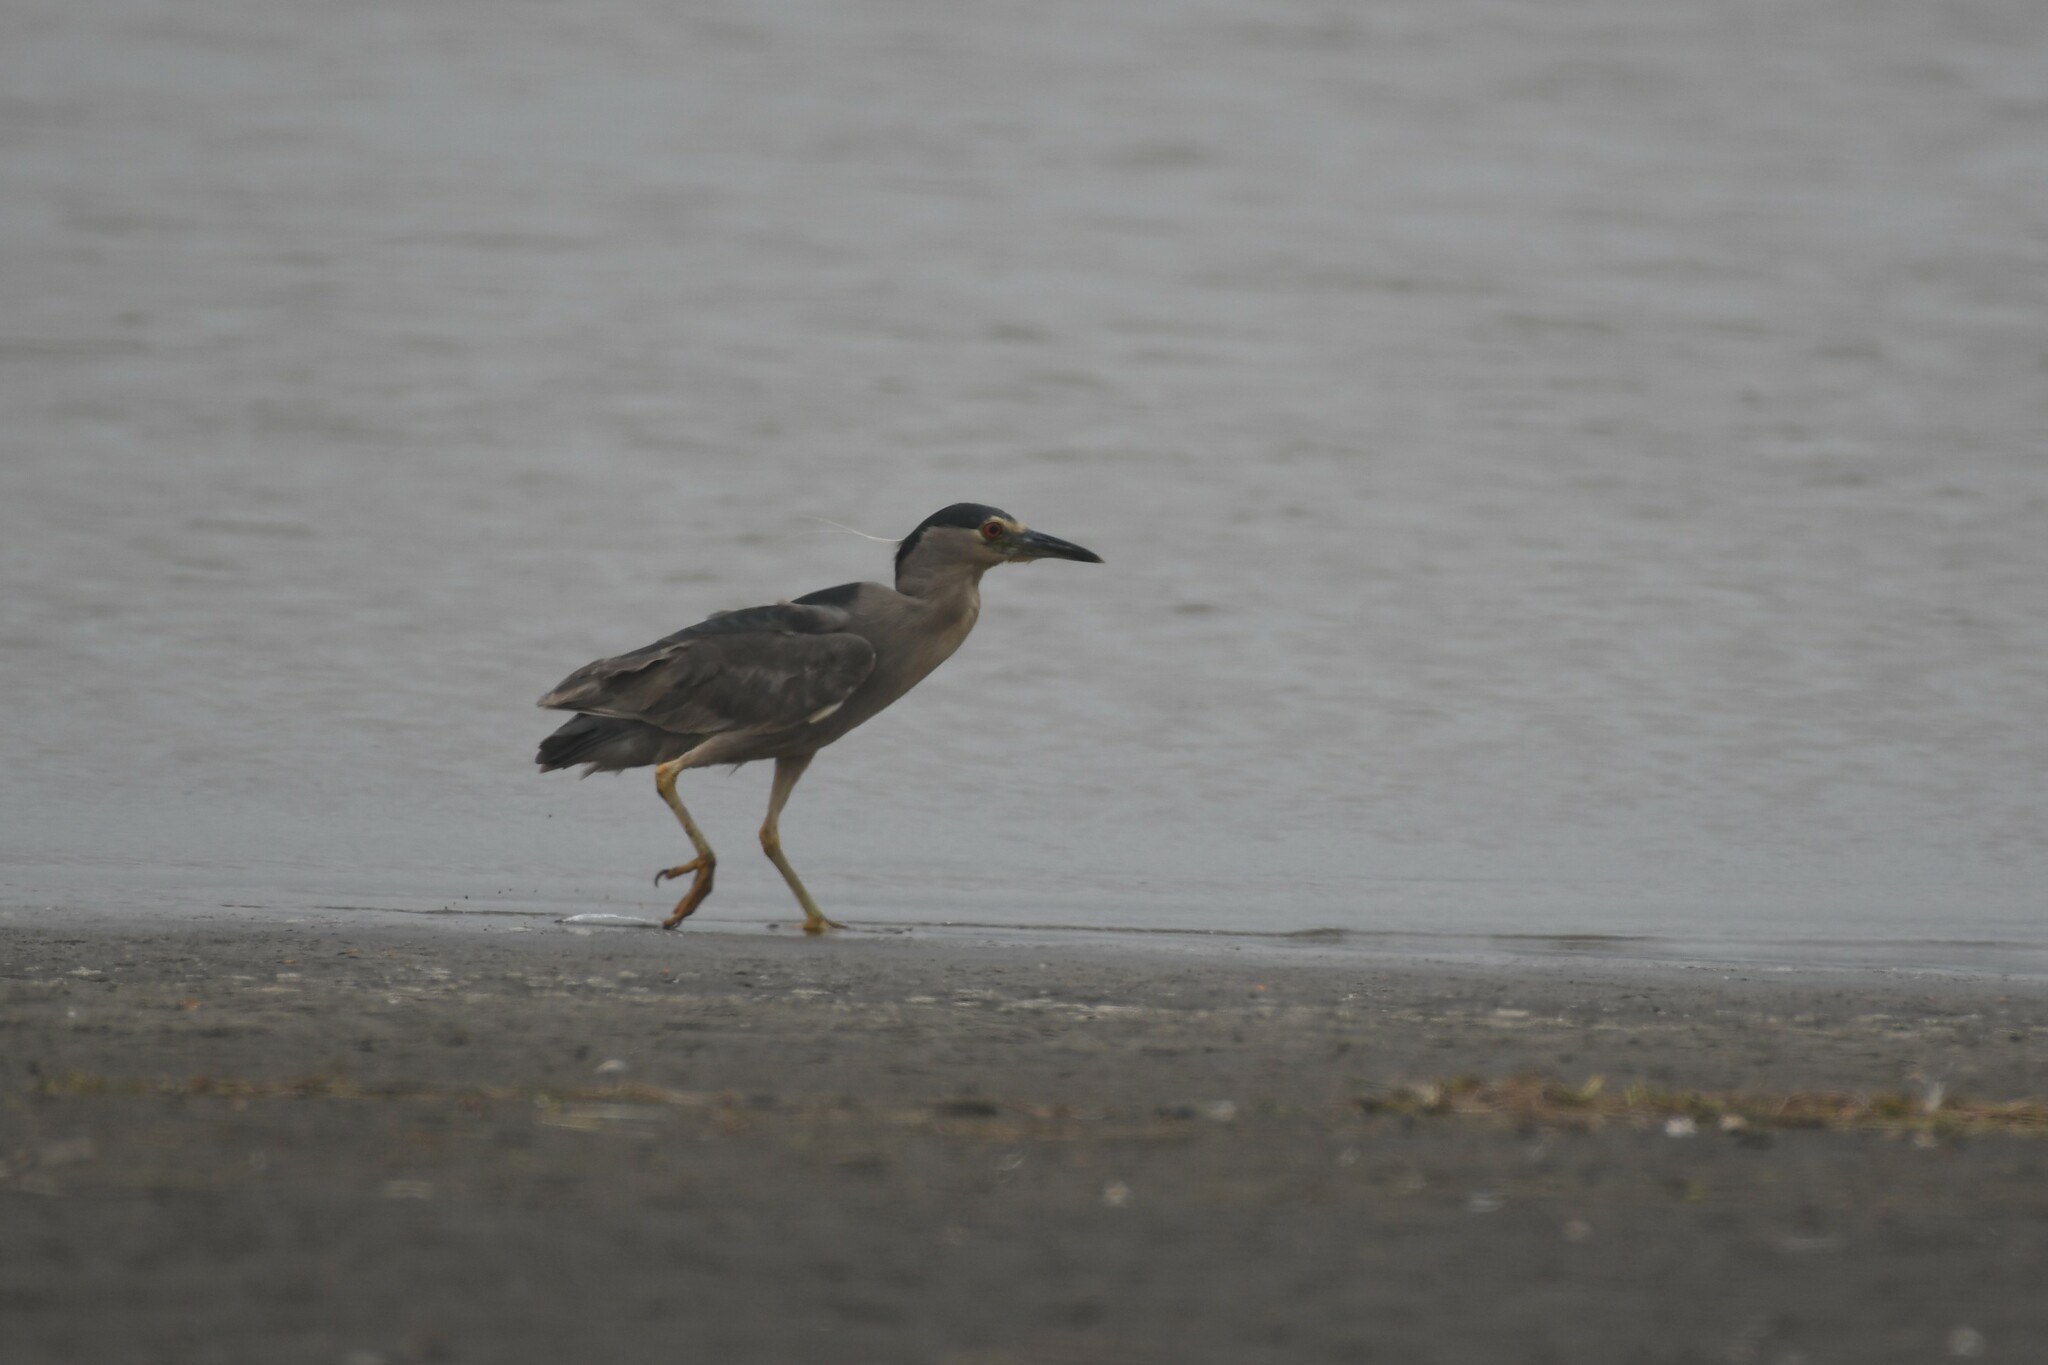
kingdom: Animalia
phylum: Chordata
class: Aves
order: Pelecaniformes
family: Ardeidae
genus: Nycticorax
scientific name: Nycticorax nycticorax
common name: Black-crowned night heron
